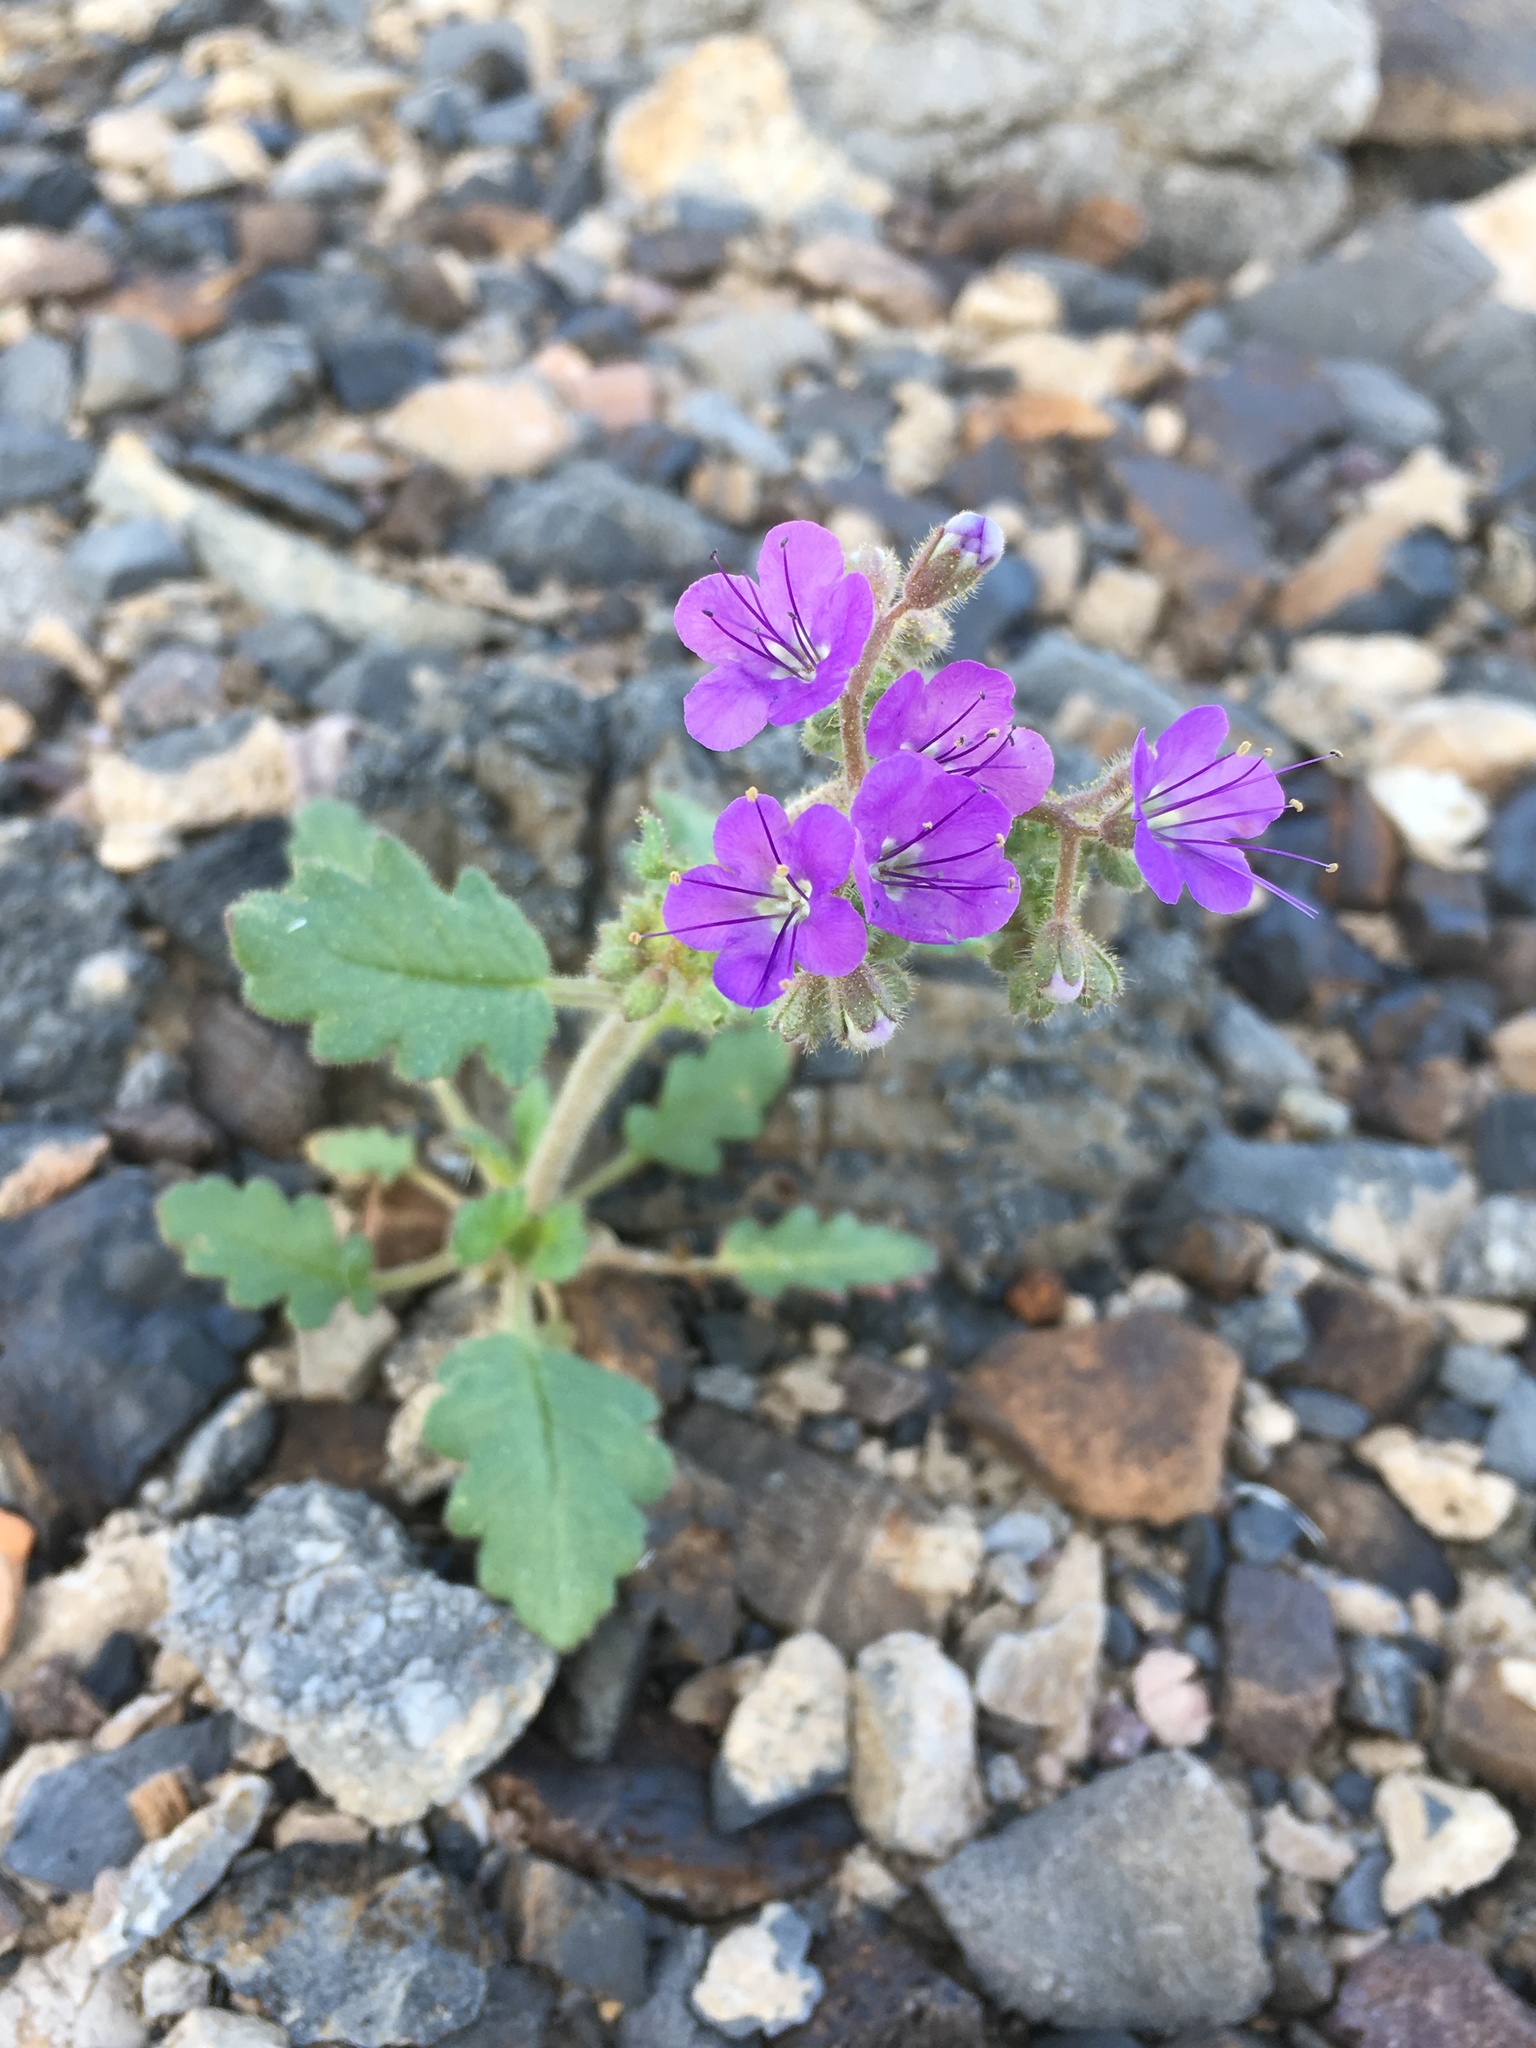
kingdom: Plantae
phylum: Tracheophyta
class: Magnoliopsida
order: Boraginales
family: Hydrophyllaceae
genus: Phacelia
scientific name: Phacelia crenulata
